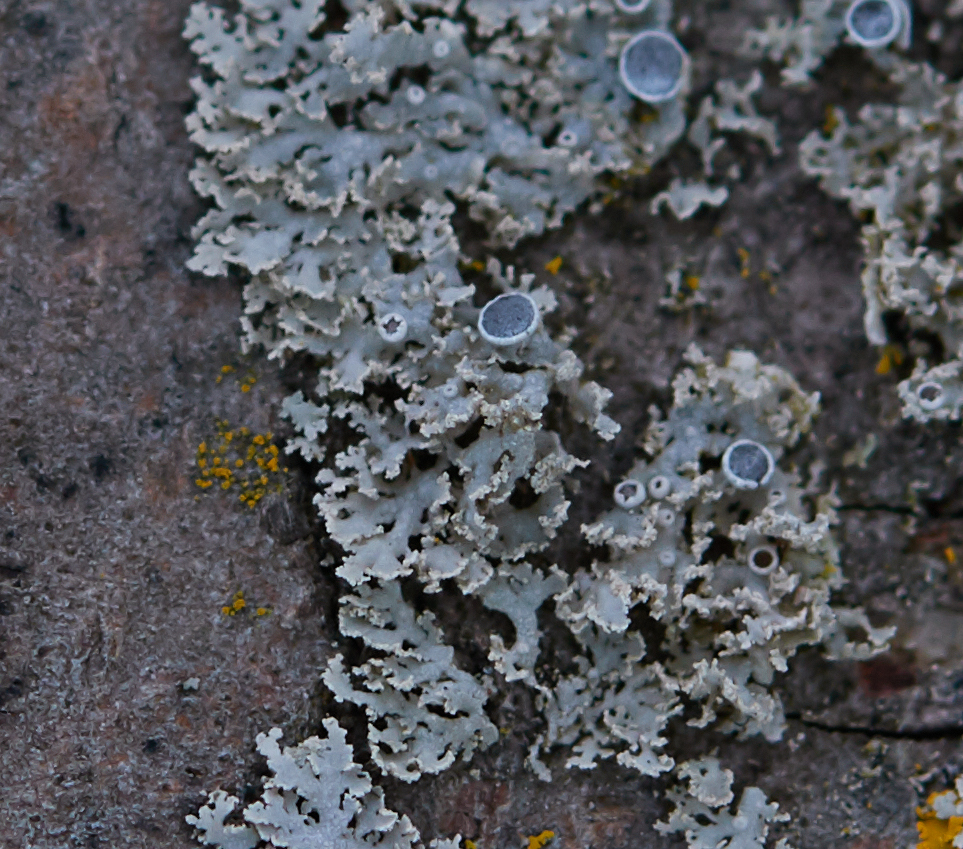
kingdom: Fungi
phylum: Ascomycota
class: Lecanoromycetes
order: Caliciales
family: Physciaceae
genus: Physcia
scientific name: Physcia millegrana
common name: Rosette lichen
